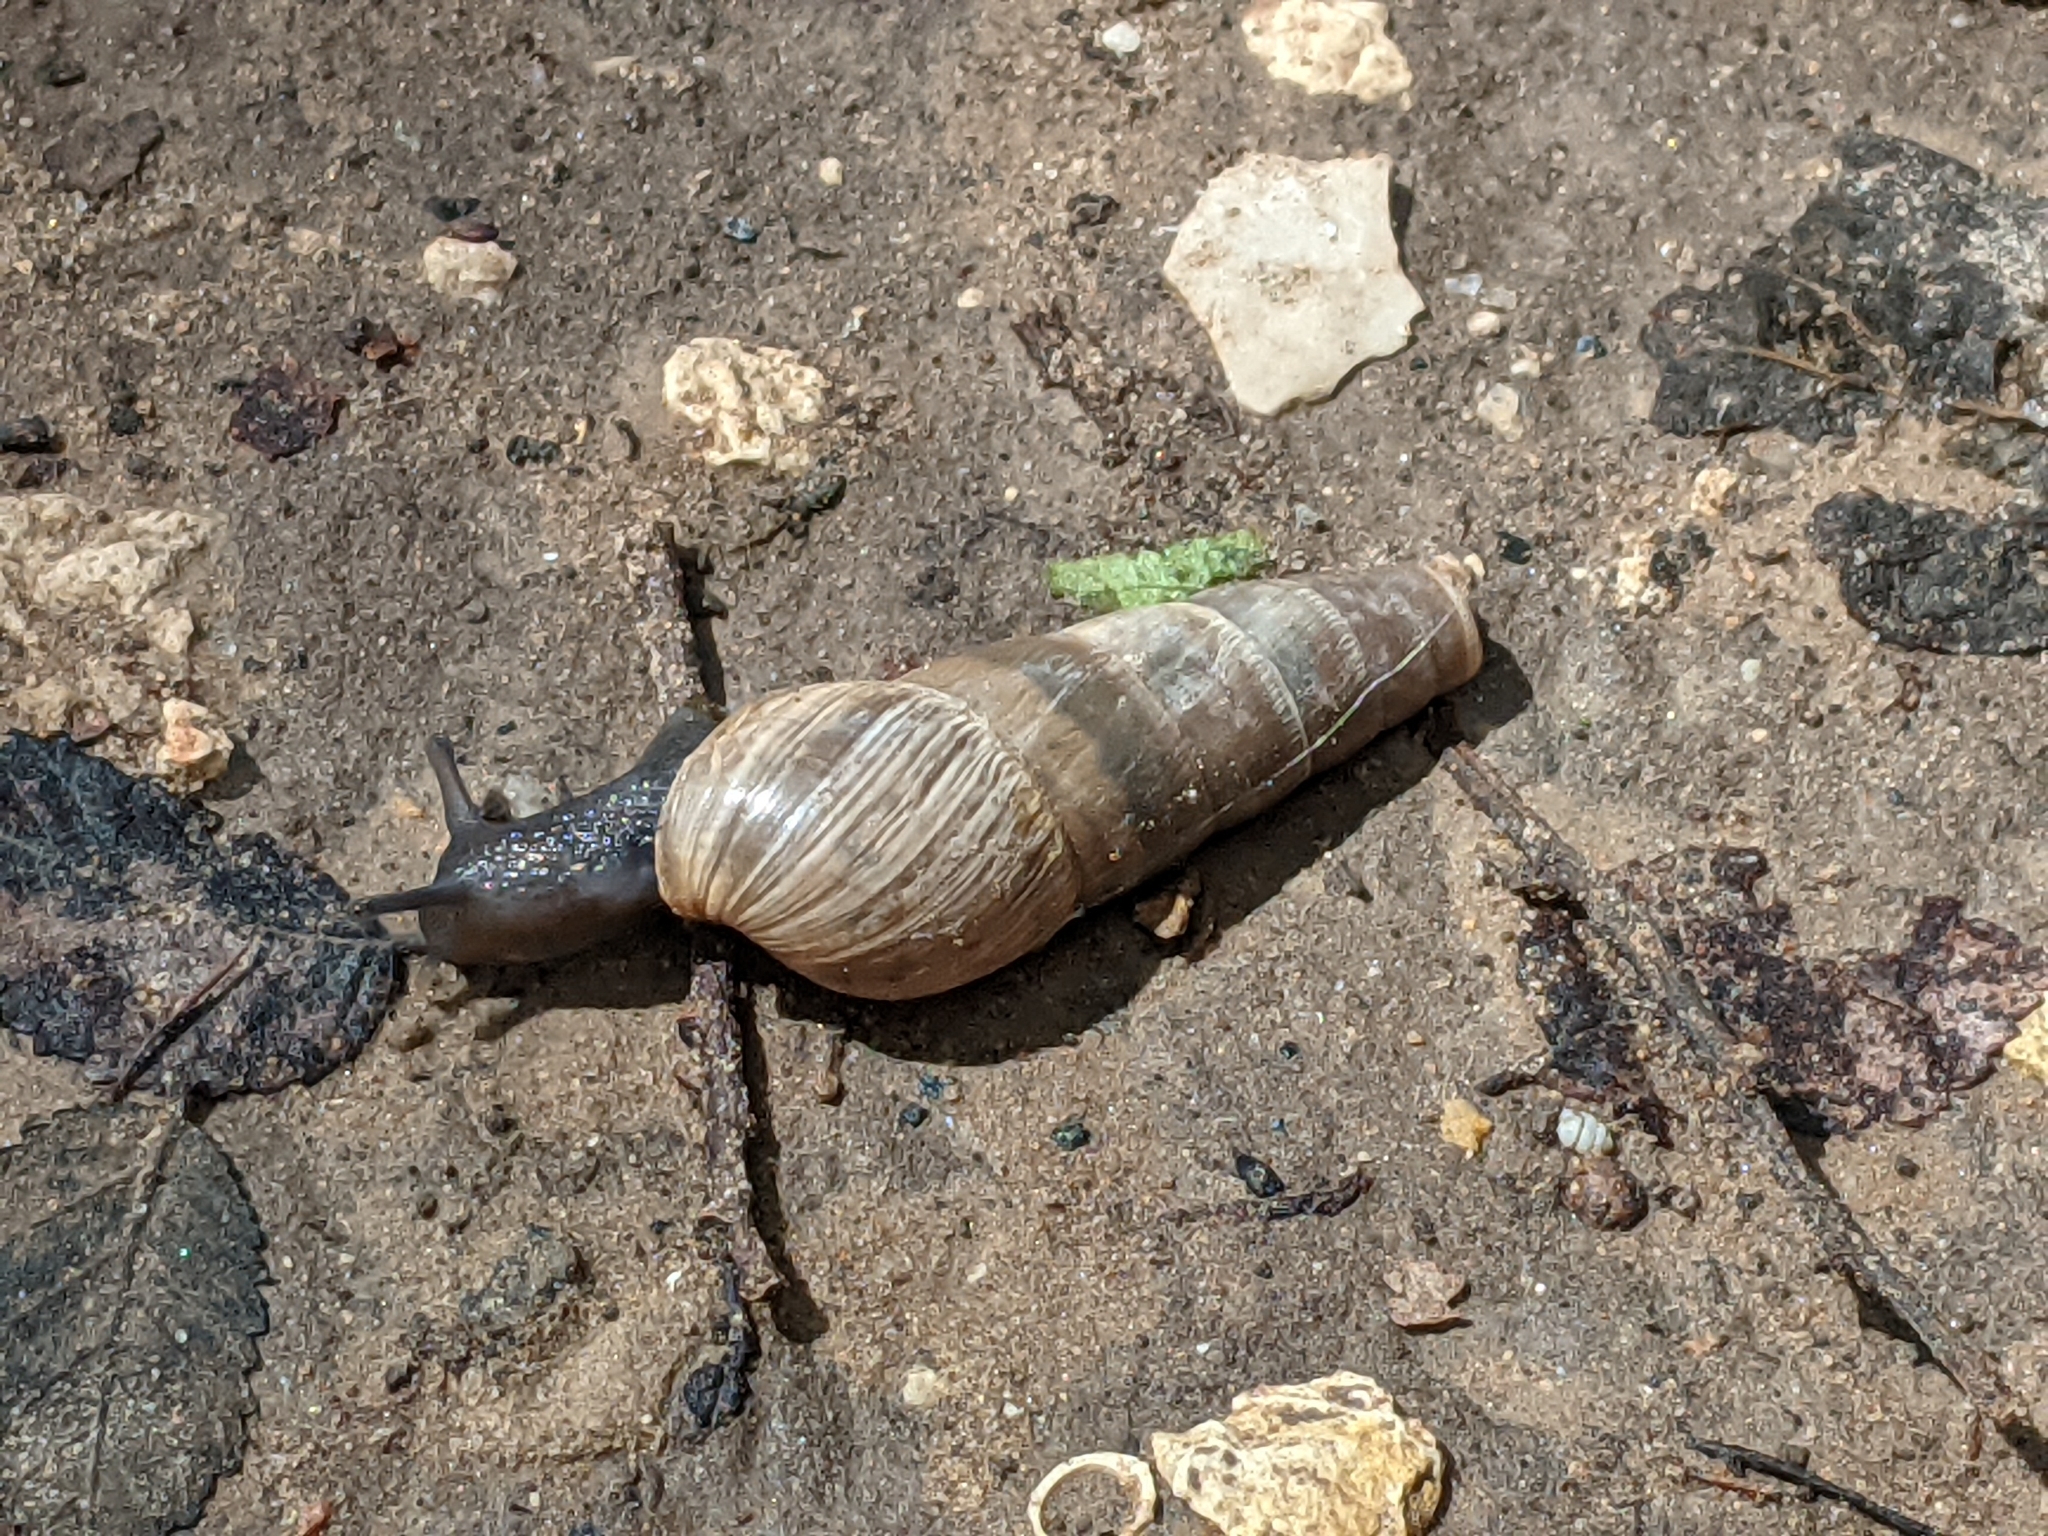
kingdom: Animalia
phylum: Mollusca
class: Gastropoda
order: Stylommatophora
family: Achatinidae
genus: Rumina
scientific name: Rumina decollata
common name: Decollate snail
